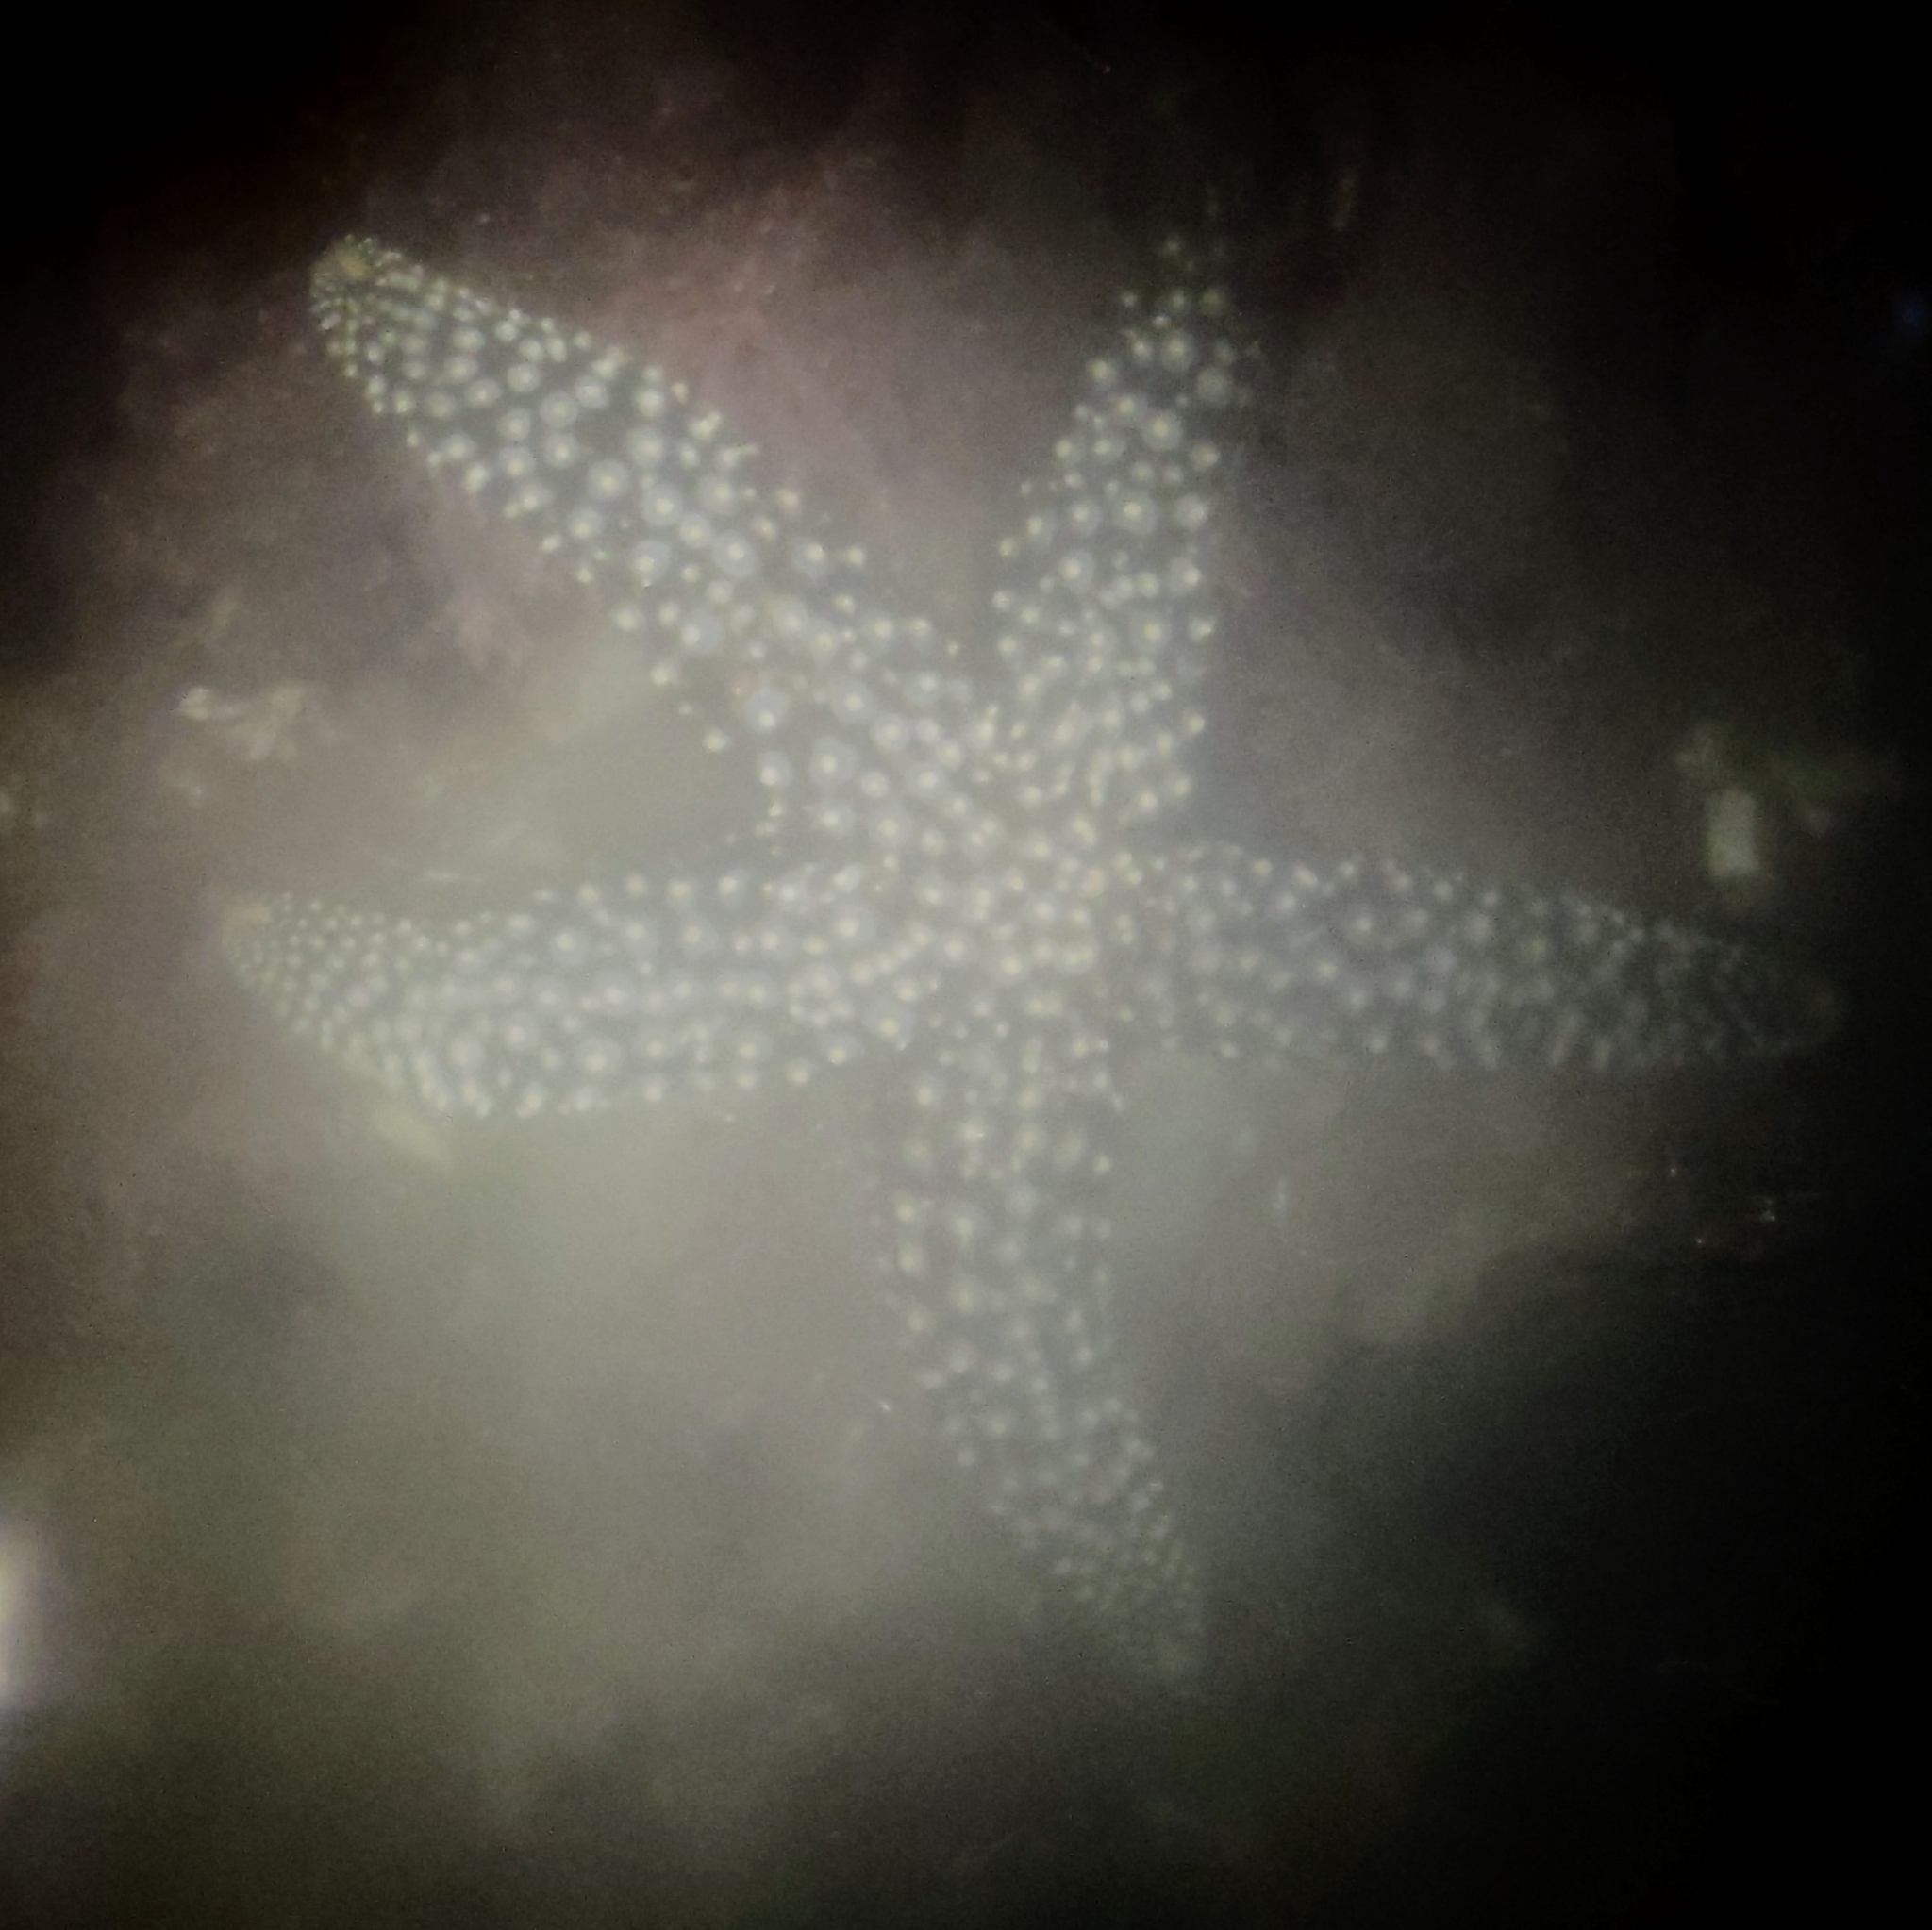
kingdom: Animalia
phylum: Echinodermata
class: Asteroidea
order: Forcipulatida
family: Asteriidae
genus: Pisaster
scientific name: Pisaster giganteus
